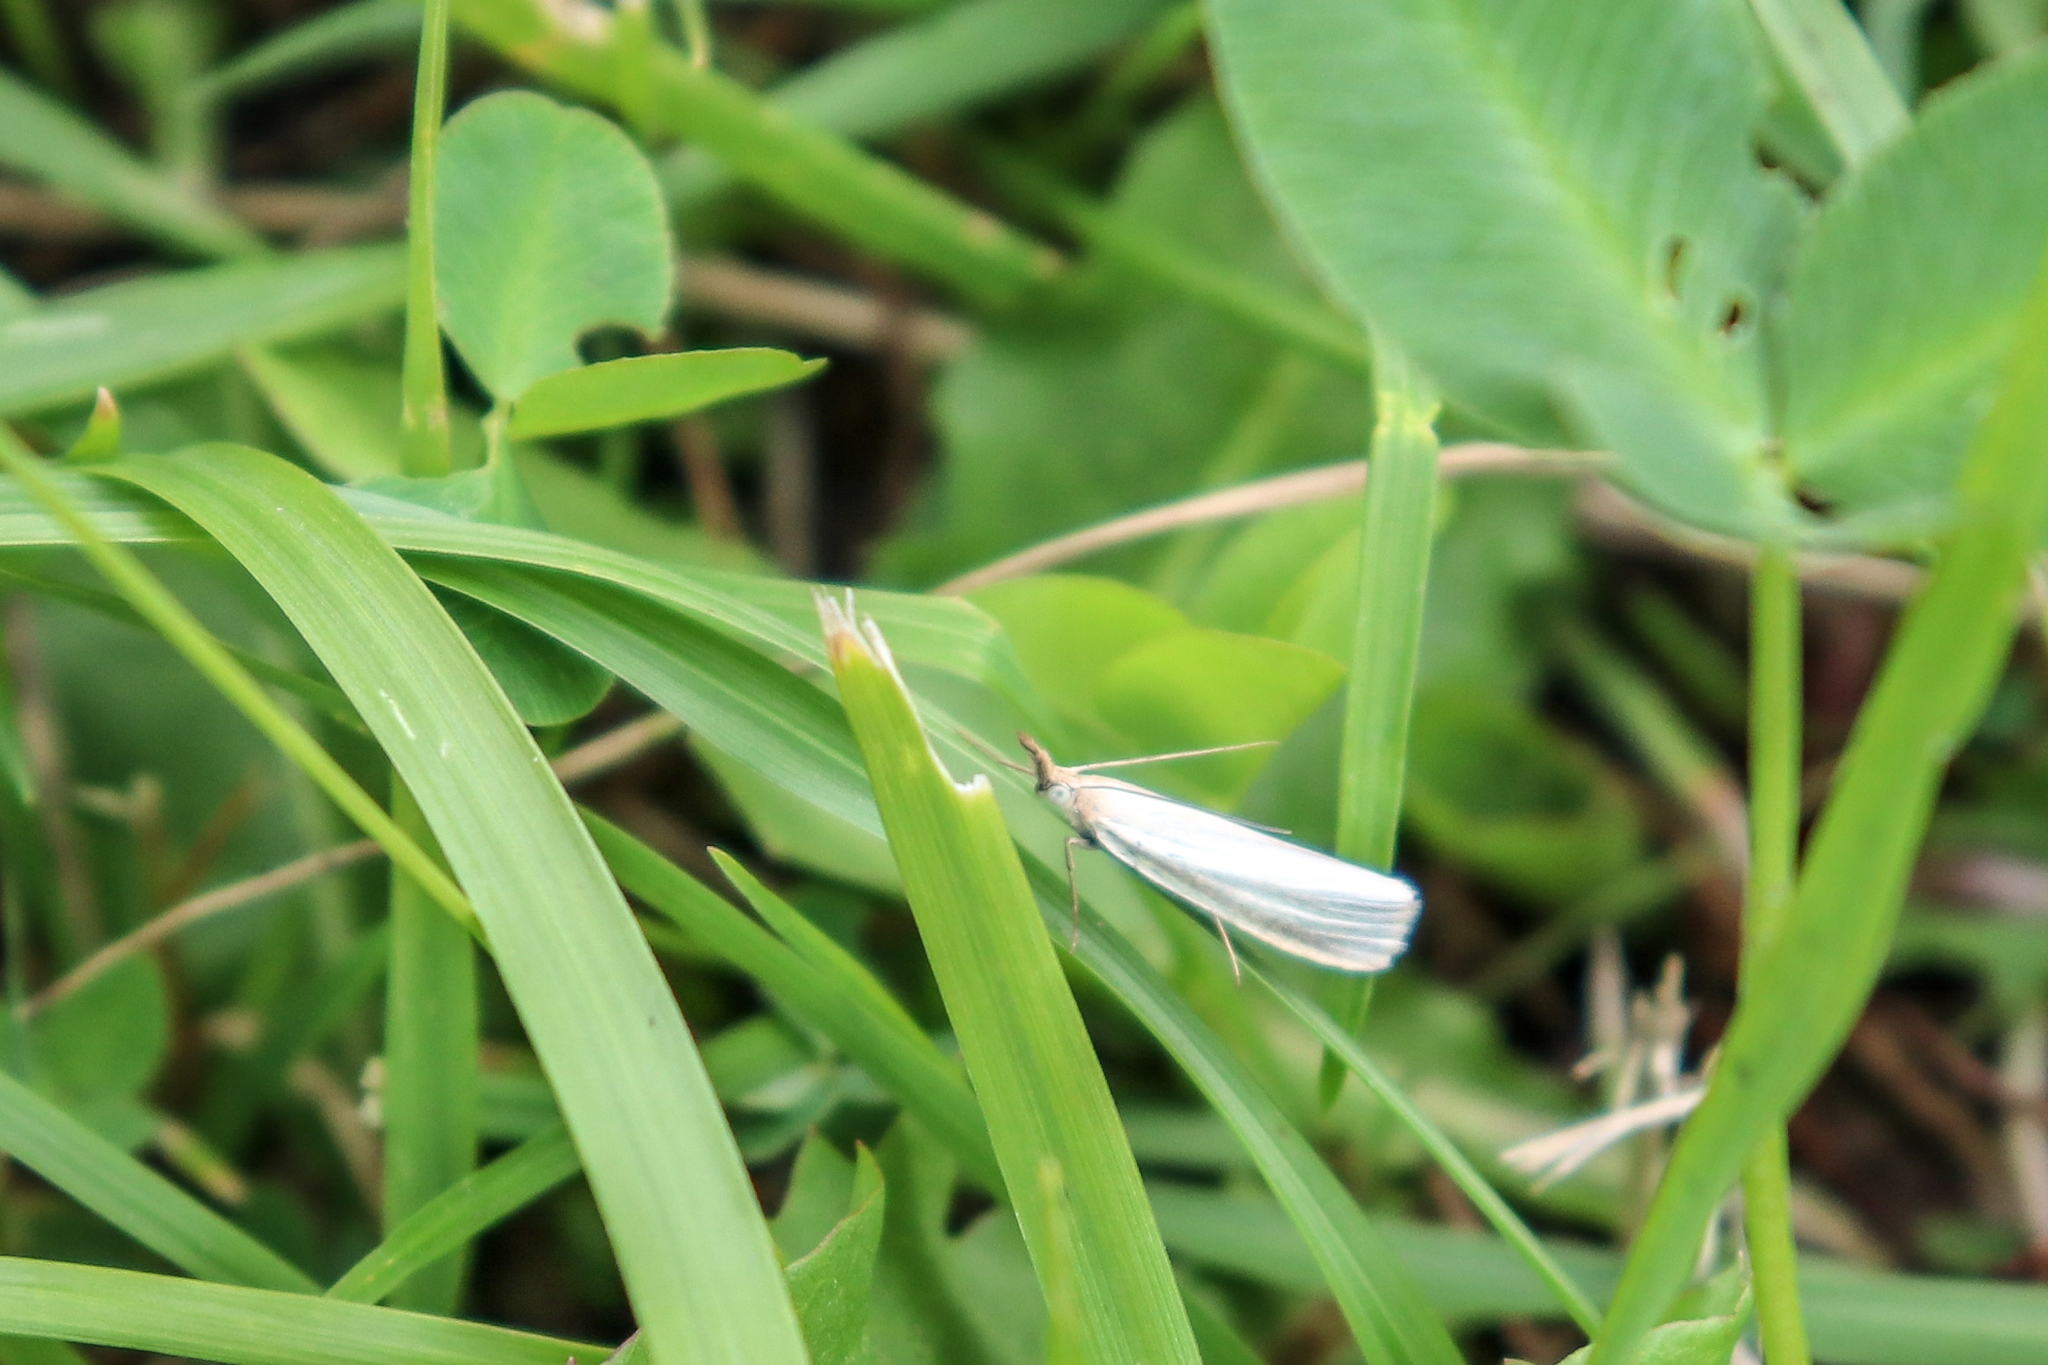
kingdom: Animalia
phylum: Arthropoda
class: Insecta
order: Lepidoptera
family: Crambidae
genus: Crambus
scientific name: Crambus perlellus
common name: Yellow satin veneer
